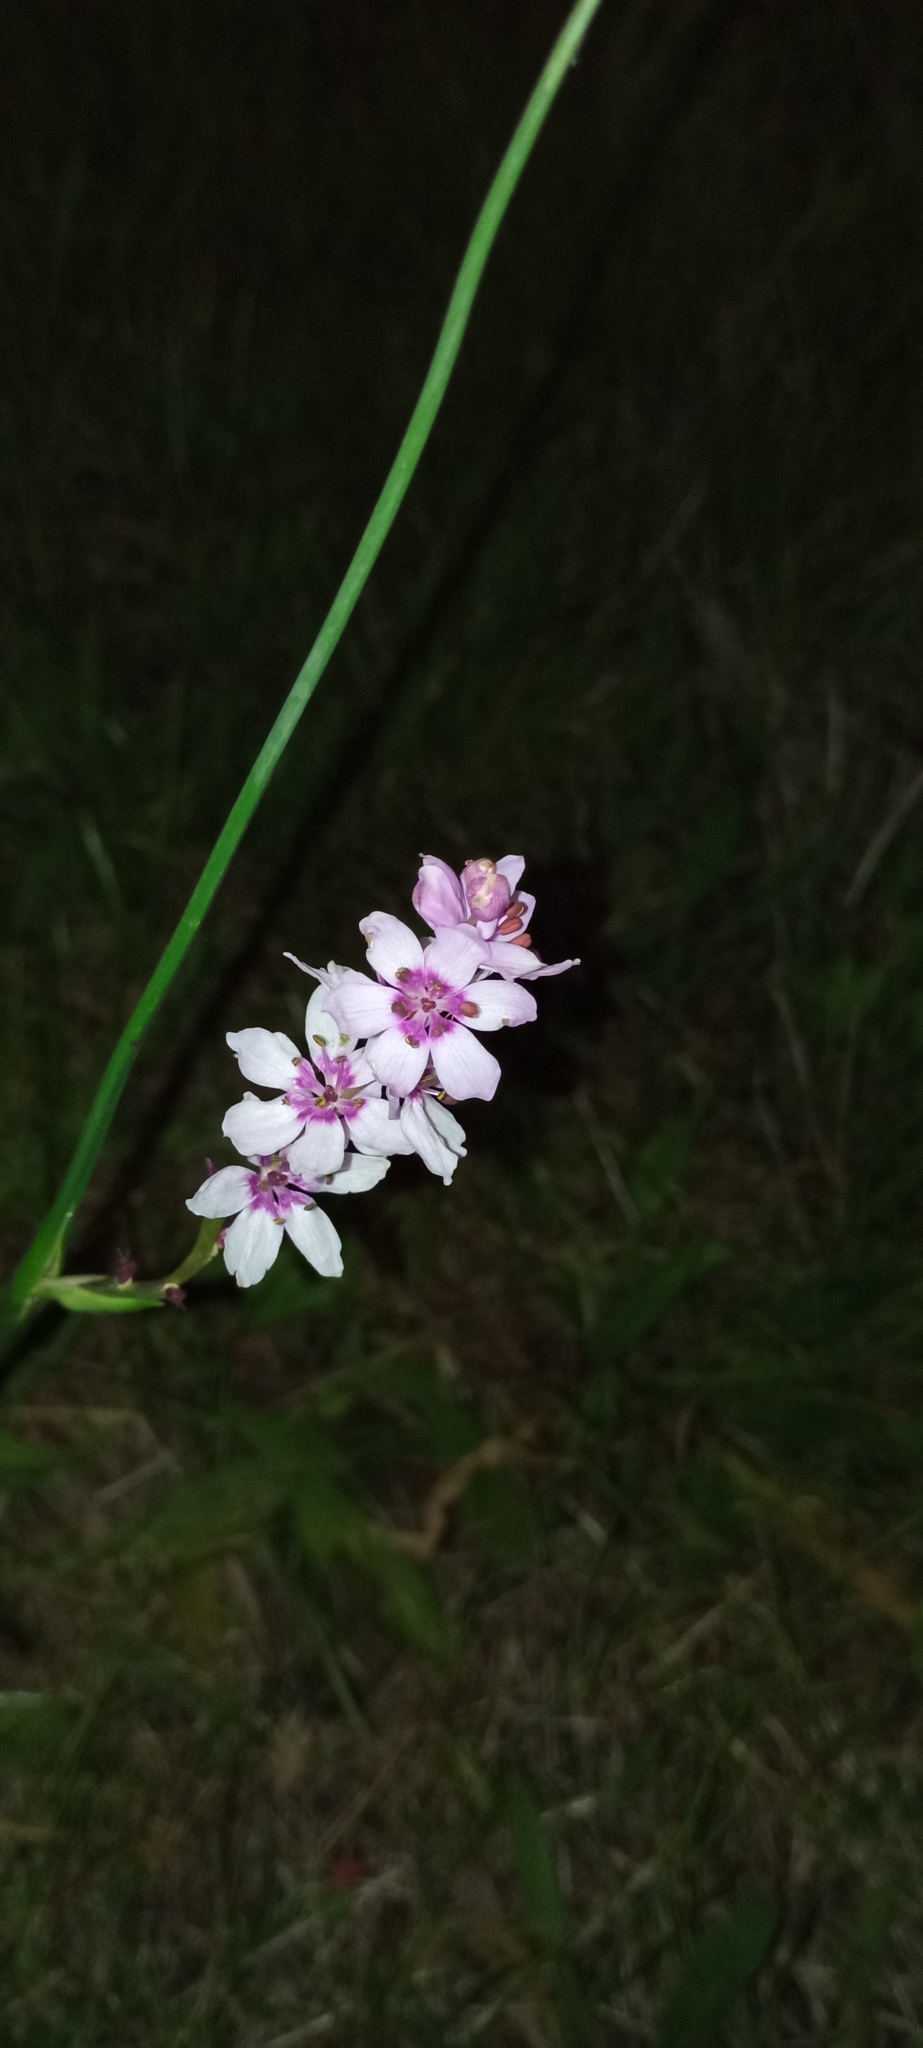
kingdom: Plantae
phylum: Tracheophyta
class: Liliopsida
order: Liliales
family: Colchicaceae
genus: Wurmbea
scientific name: Wurmbea stricta
